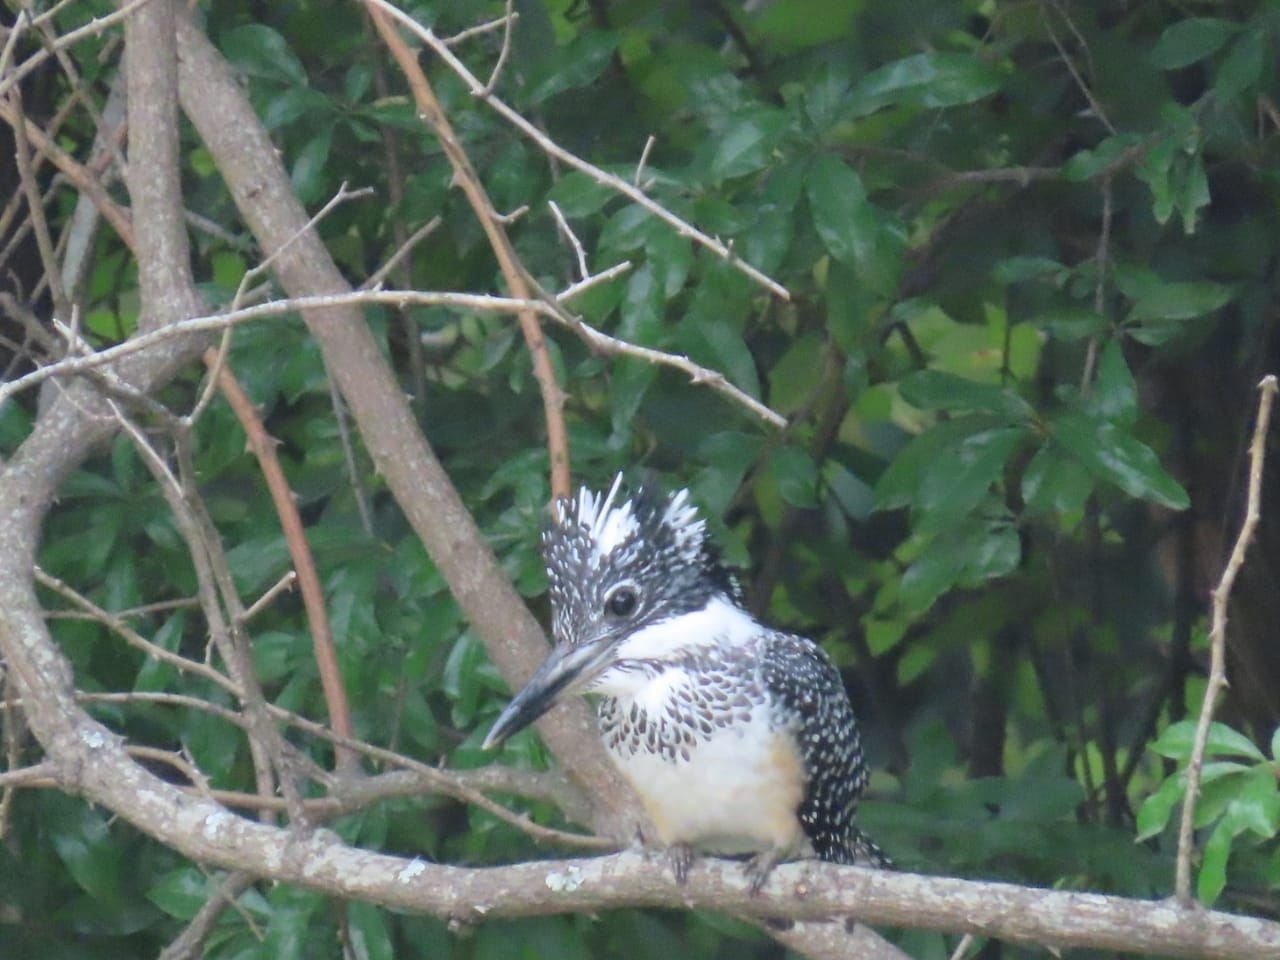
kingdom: Animalia
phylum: Chordata
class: Aves
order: Coraciiformes
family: Alcedinidae
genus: Megaceryle
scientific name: Megaceryle lugubris
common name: Crested kingfisher
